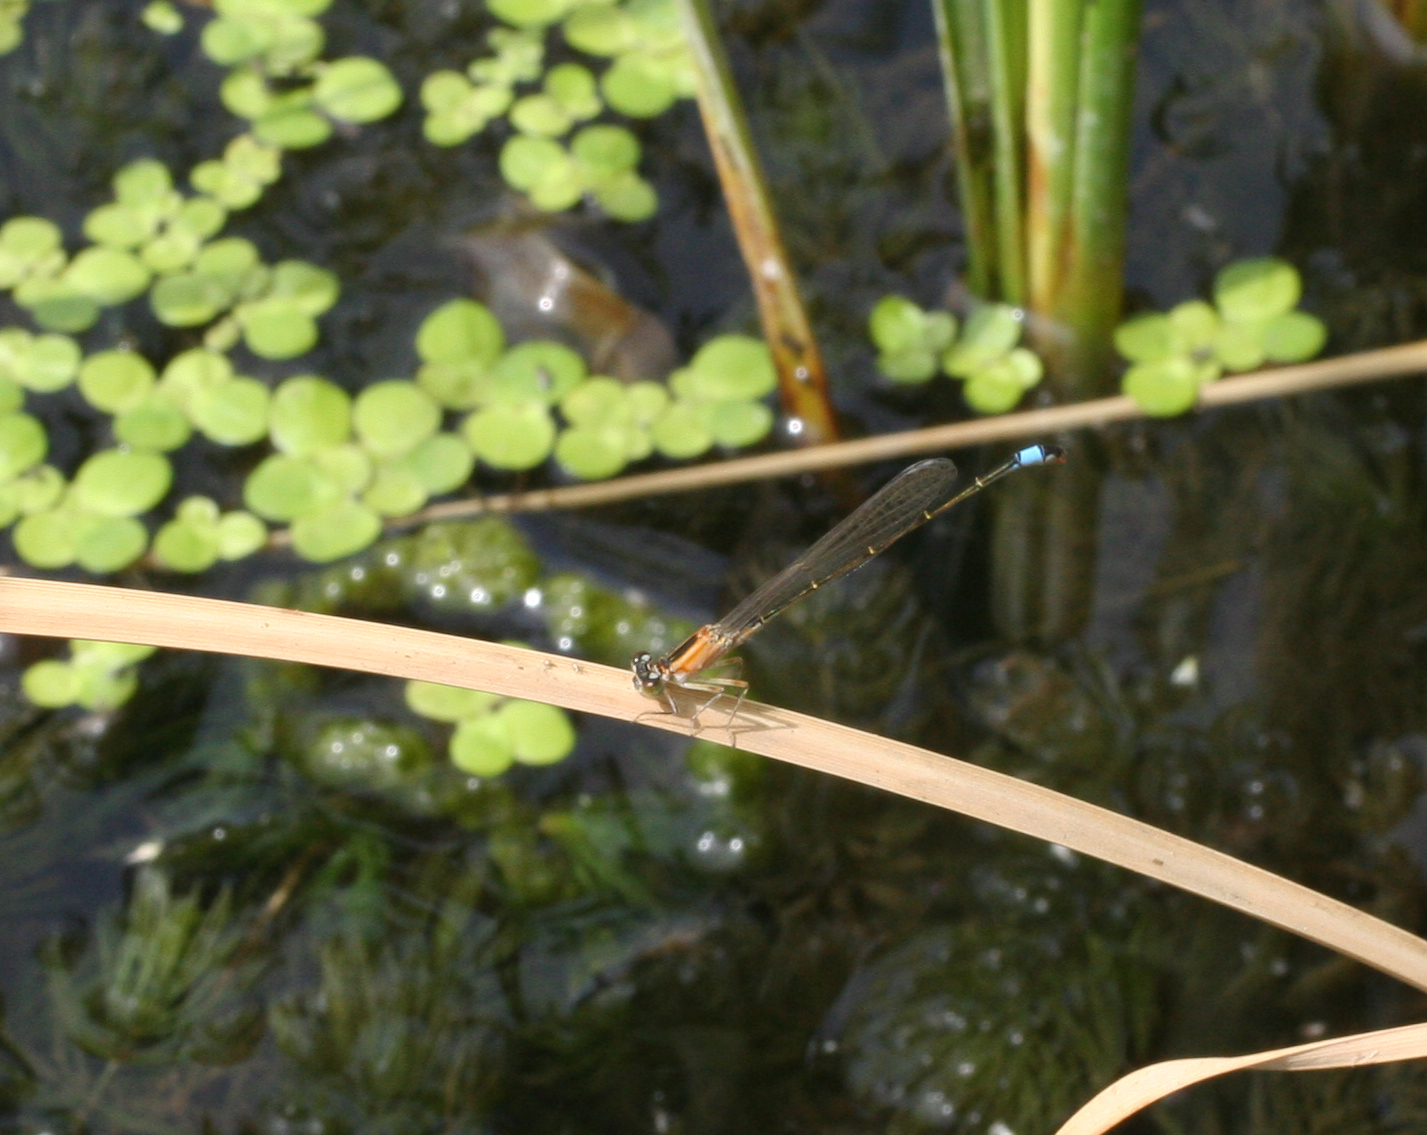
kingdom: Animalia
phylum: Arthropoda
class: Insecta
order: Odonata
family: Coenagrionidae
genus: Ischnura
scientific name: Ischnura elegans
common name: Blue-tailed damselfly
